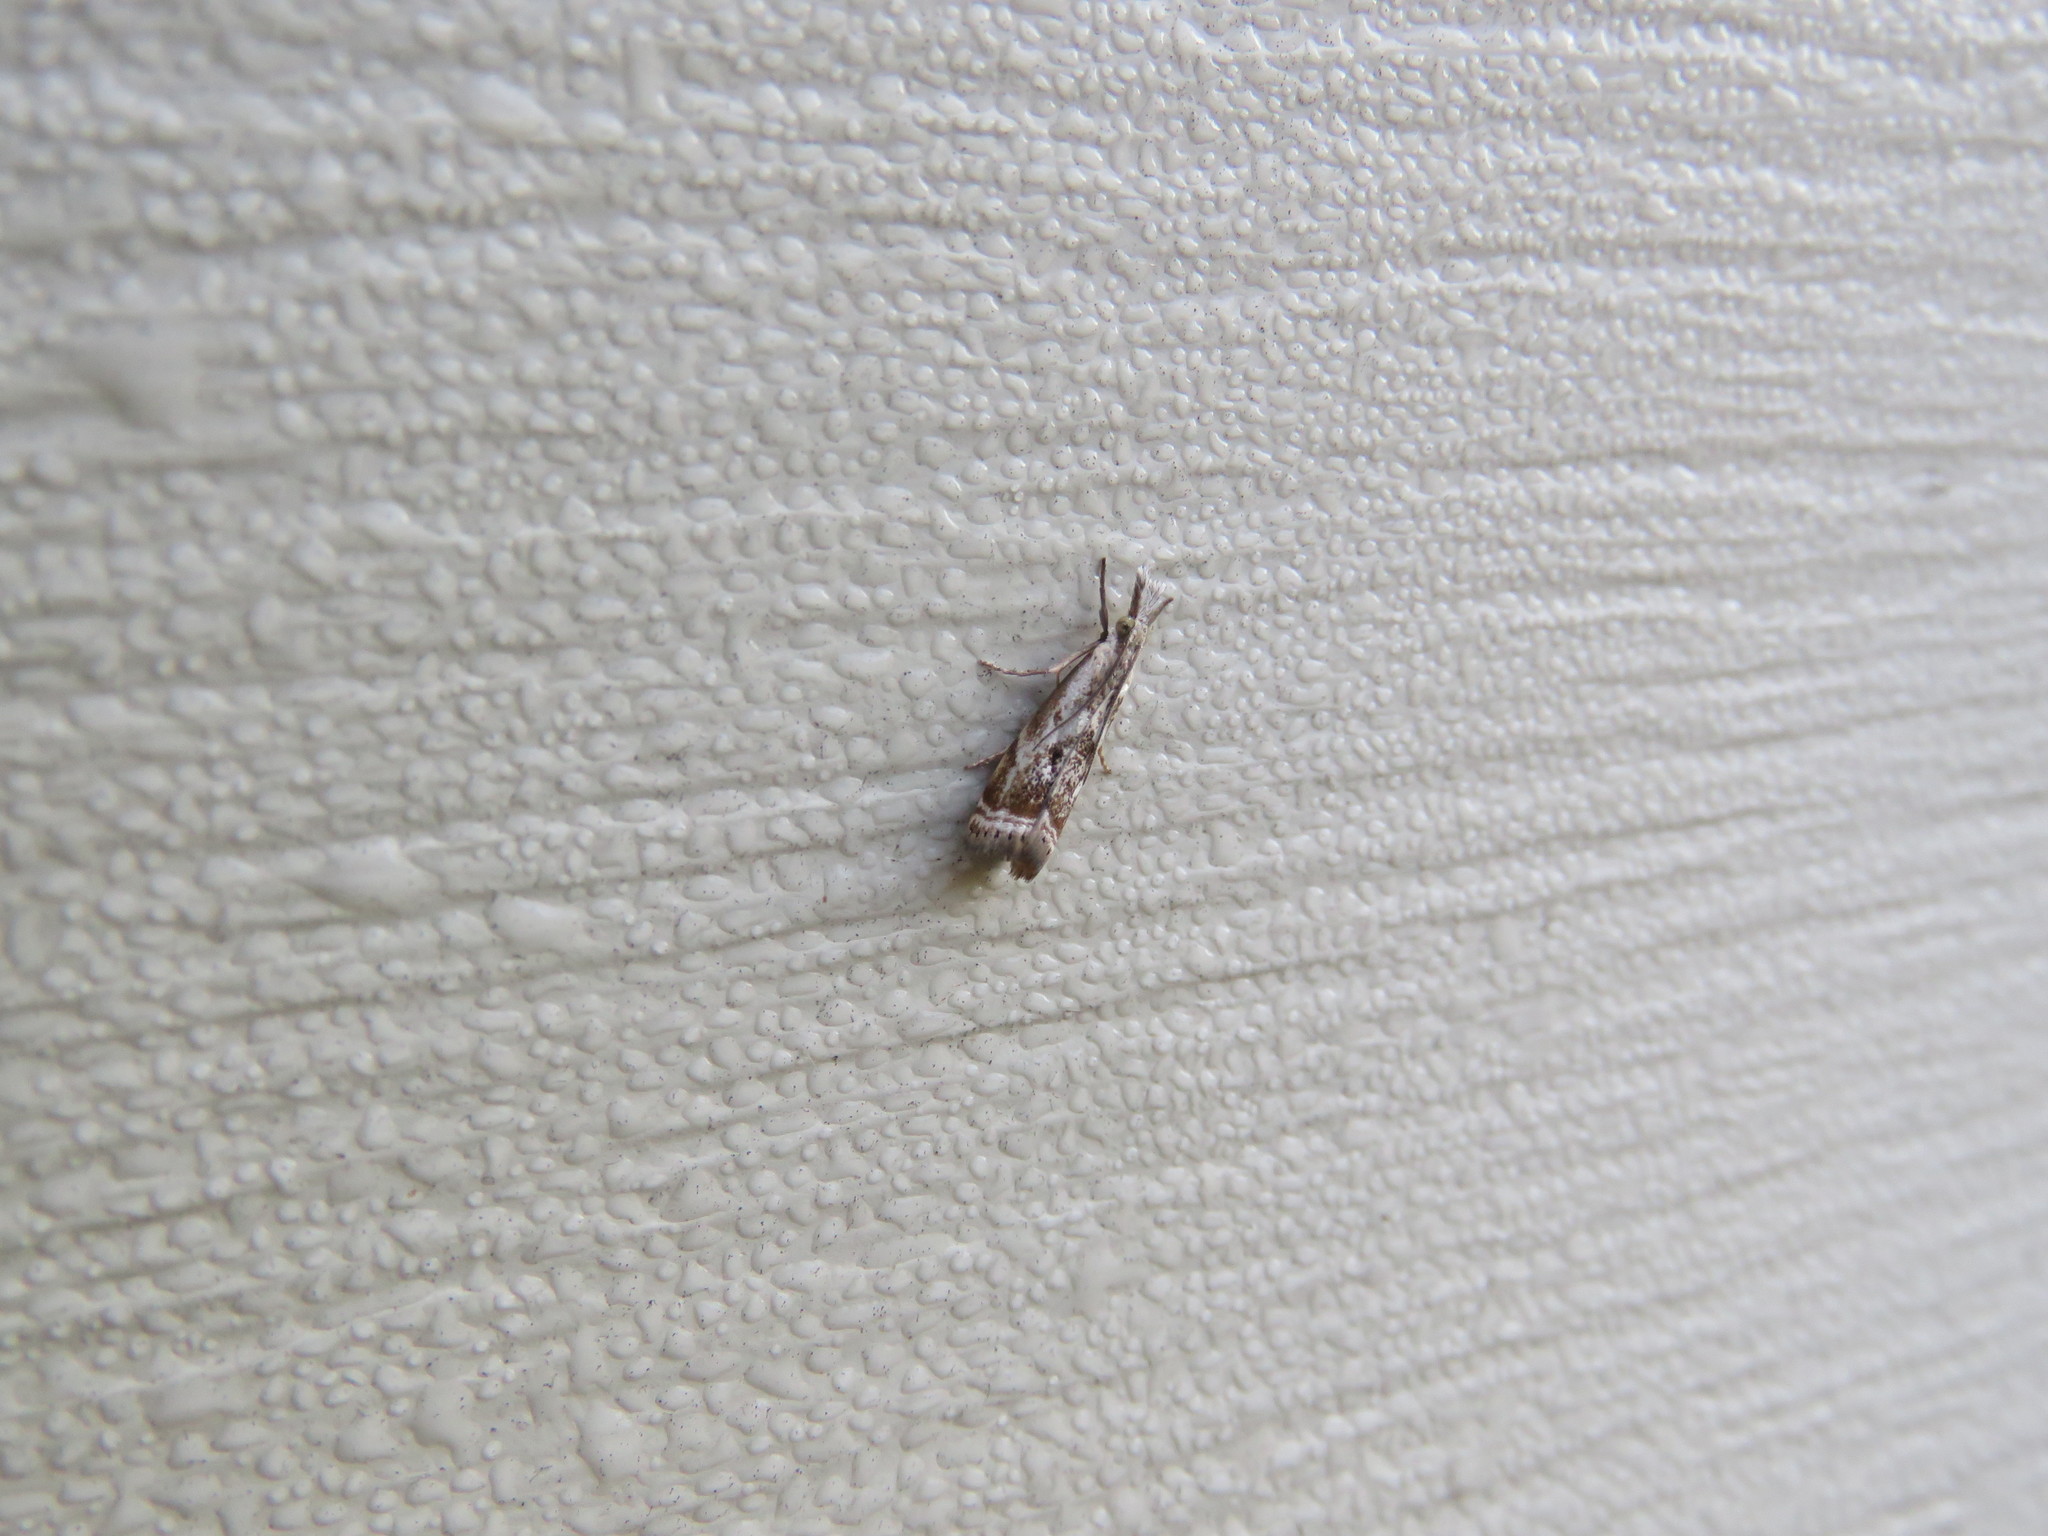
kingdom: Animalia
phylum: Arthropoda
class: Insecta
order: Lepidoptera
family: Crambidae
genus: Microcrambus
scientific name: Microcrambus elegans
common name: Elegant grass-veneer
